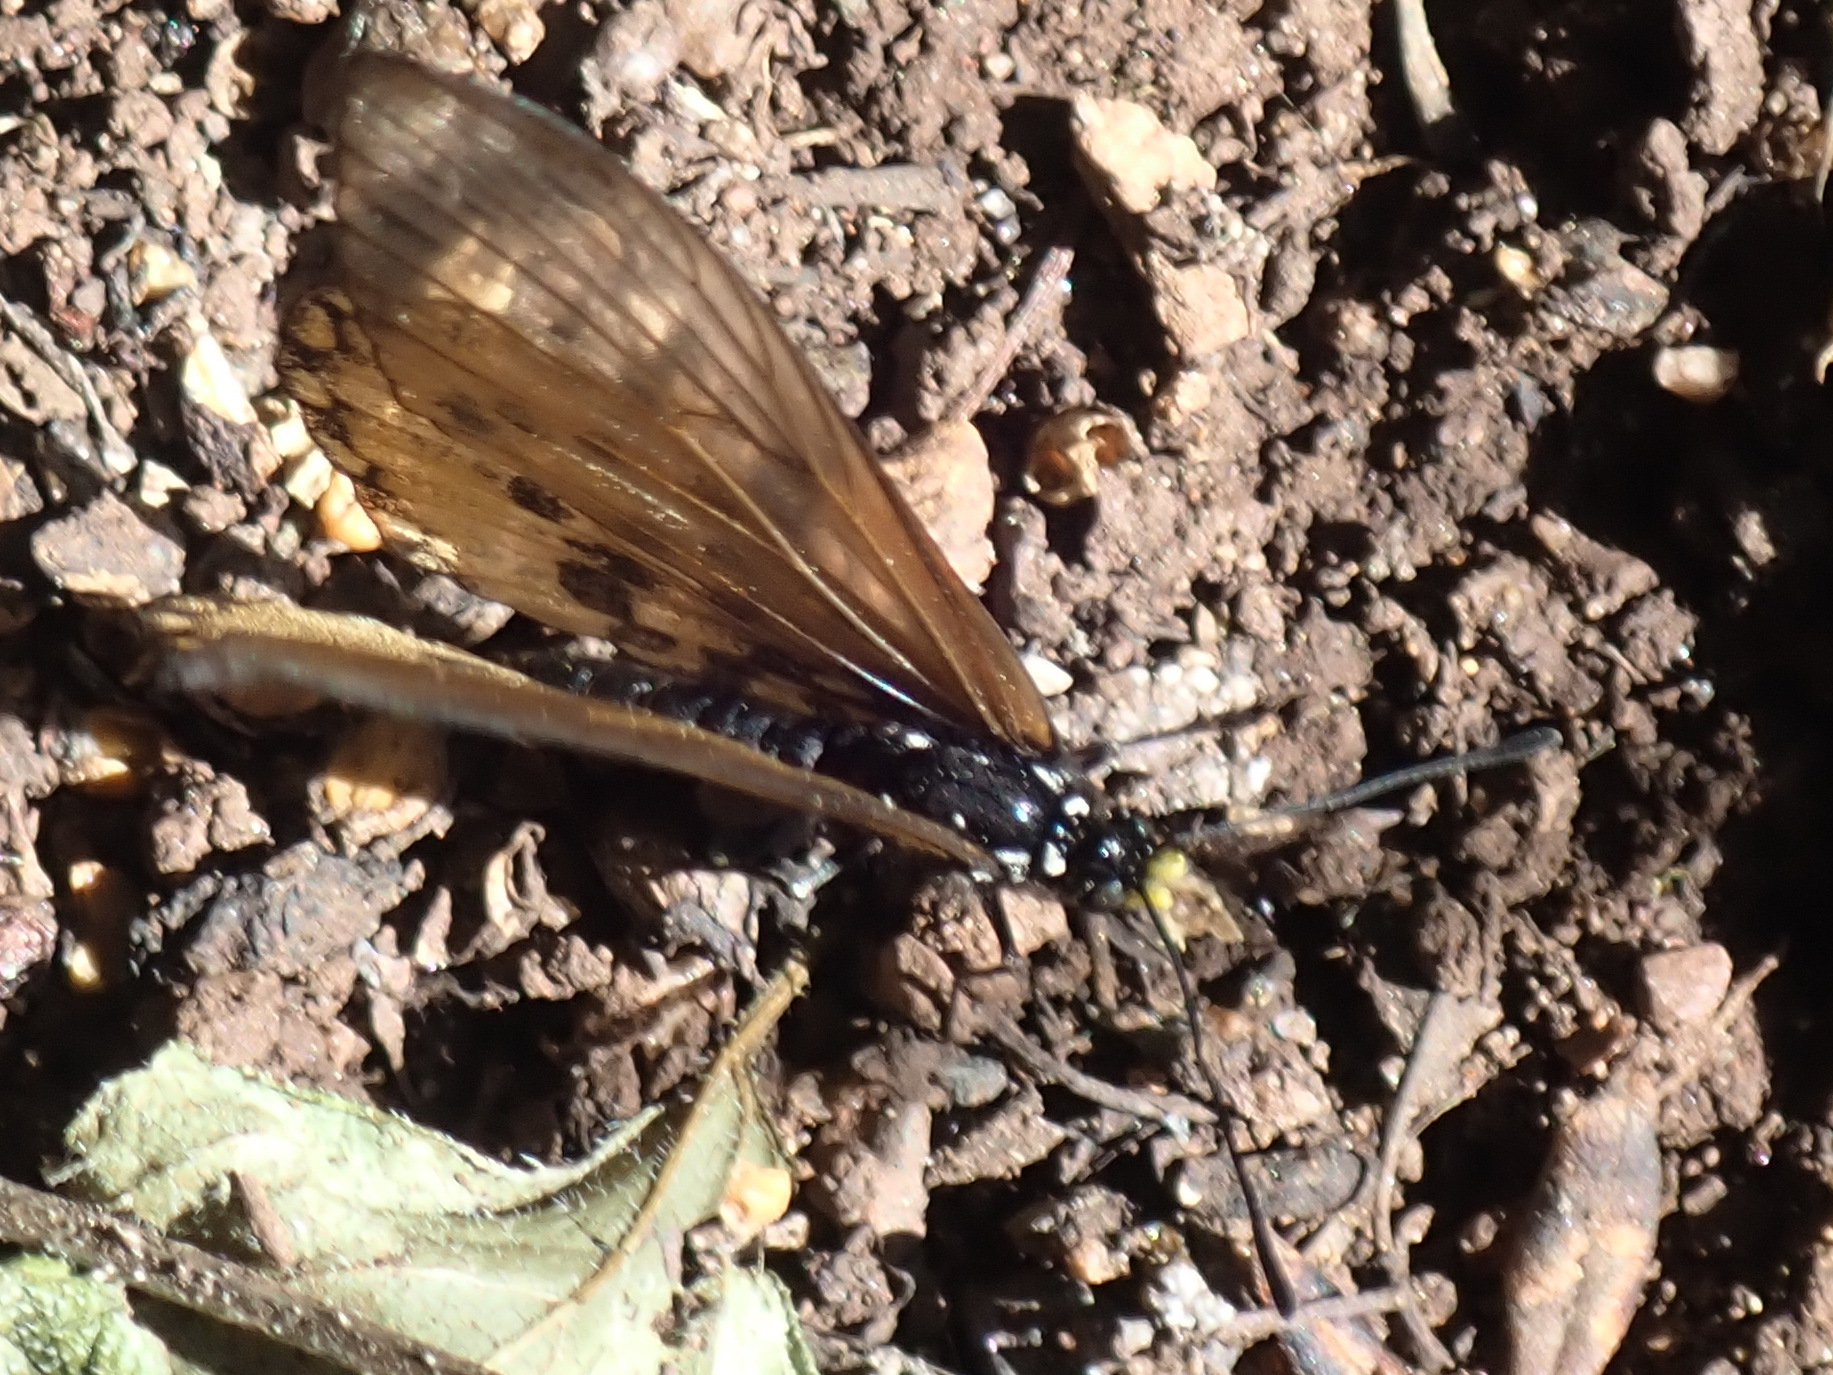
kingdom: Animalia
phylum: Arthropoda
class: Insecta
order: Lepidoptera
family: Nymphalidae
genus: Acraea
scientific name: Acraea horta
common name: Garden acraea
